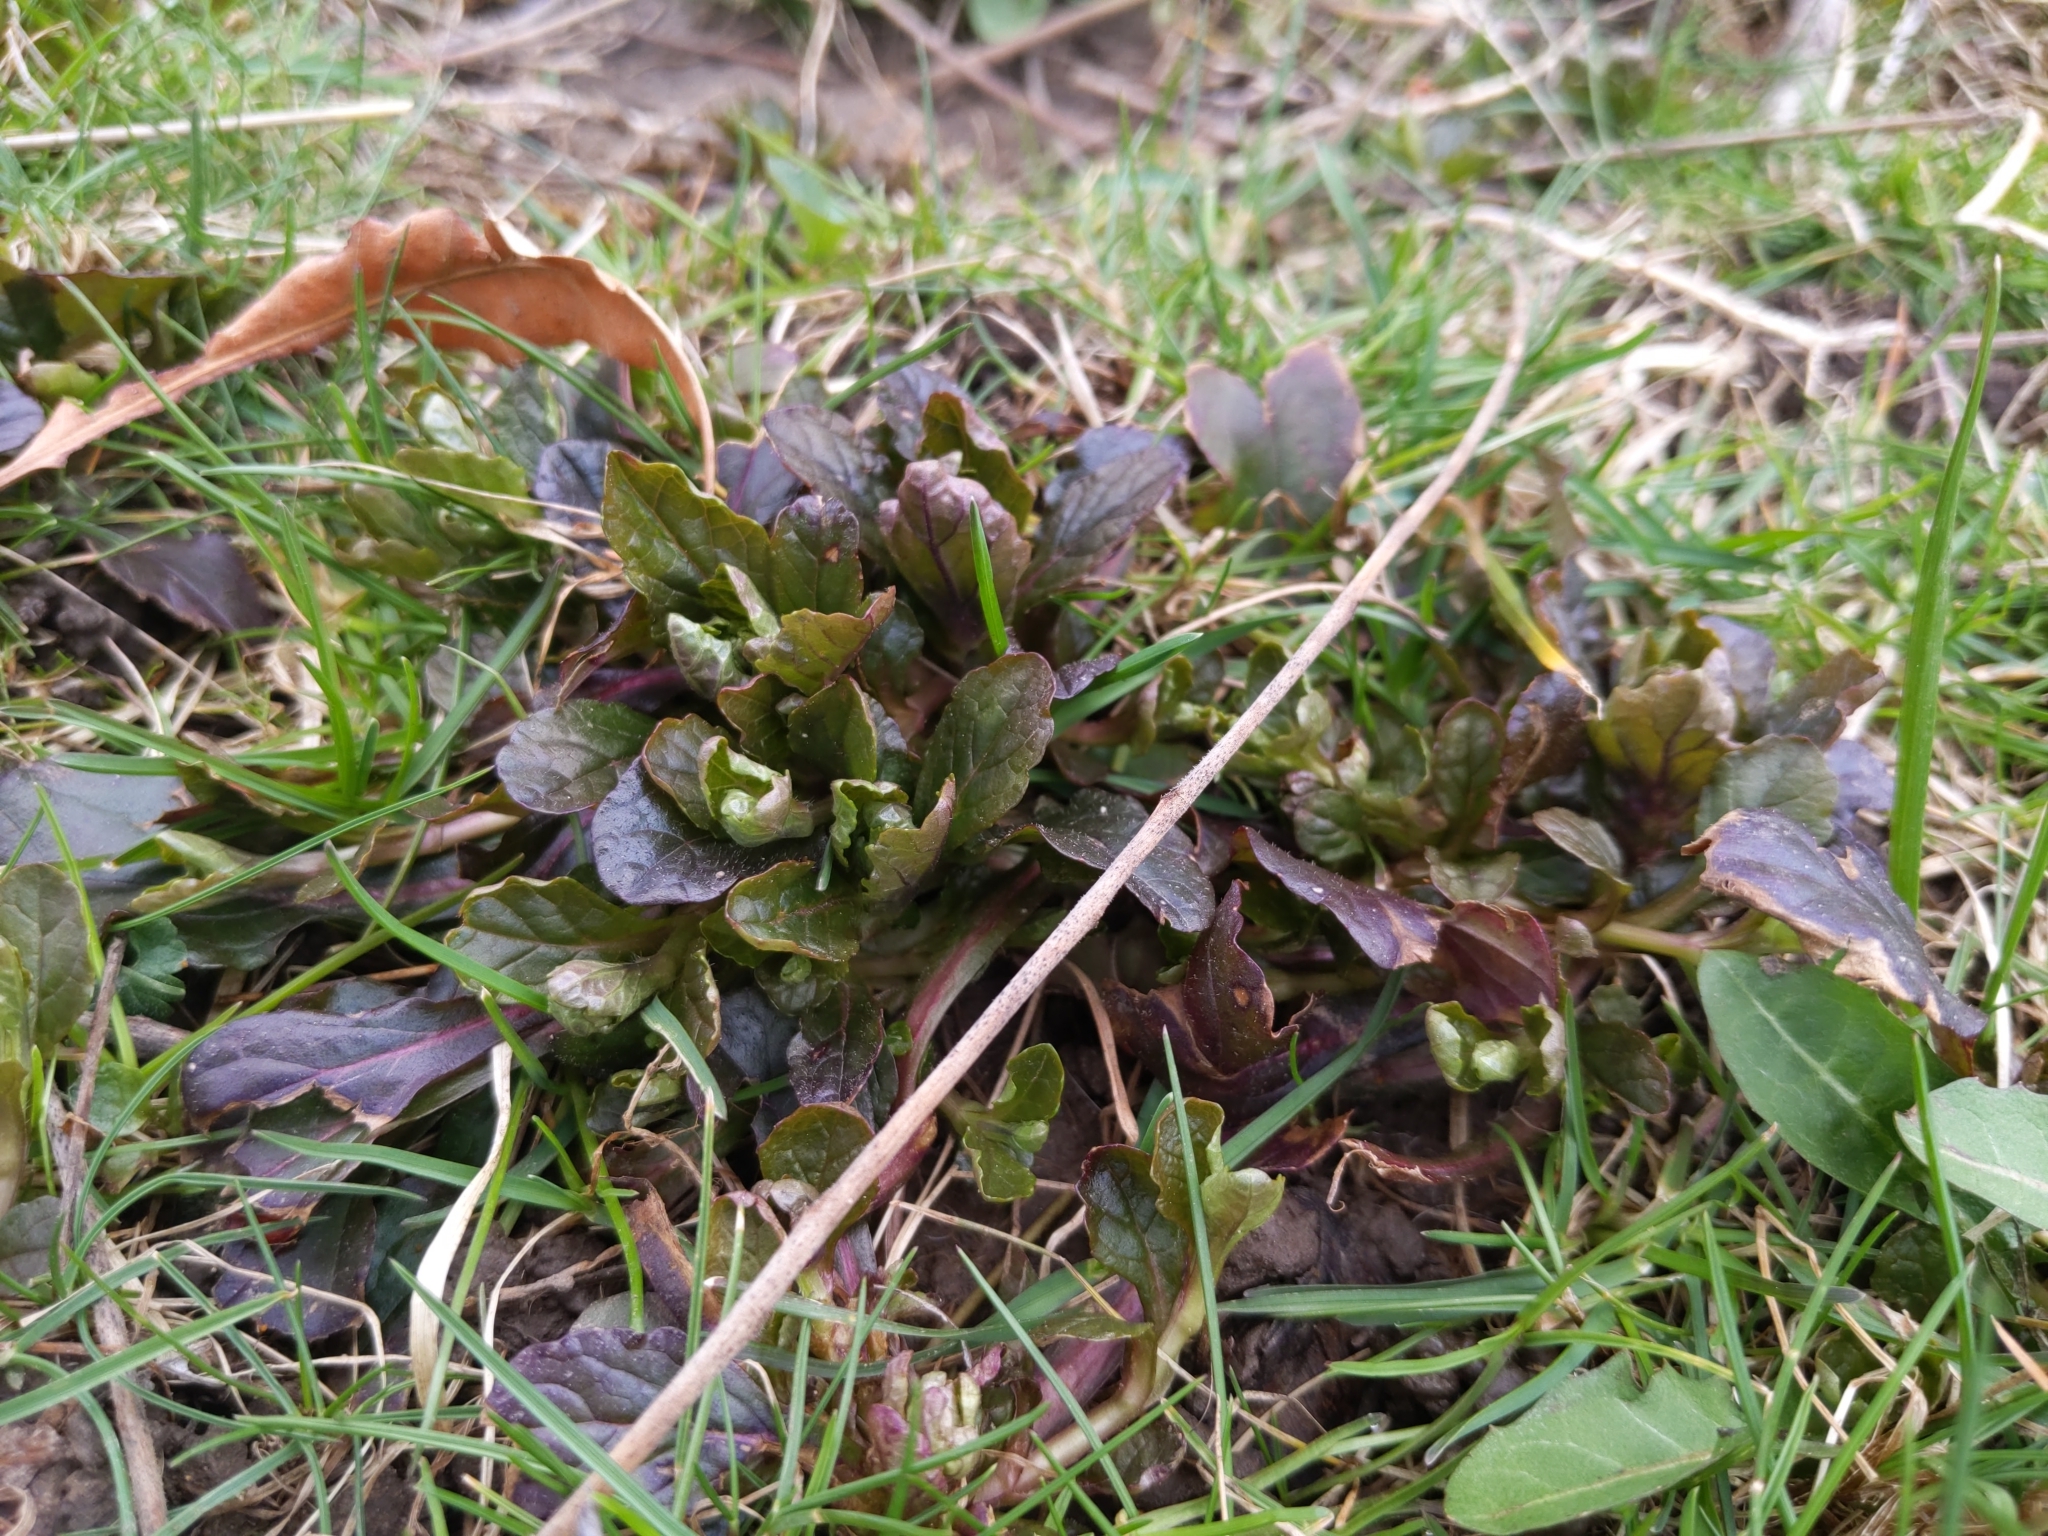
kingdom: Plantae
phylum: Tracheophyta
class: Magnoliopsida
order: Lamiales
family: Lamiaceae
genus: Ajuga
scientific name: Ajuga reptans
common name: Bugle
